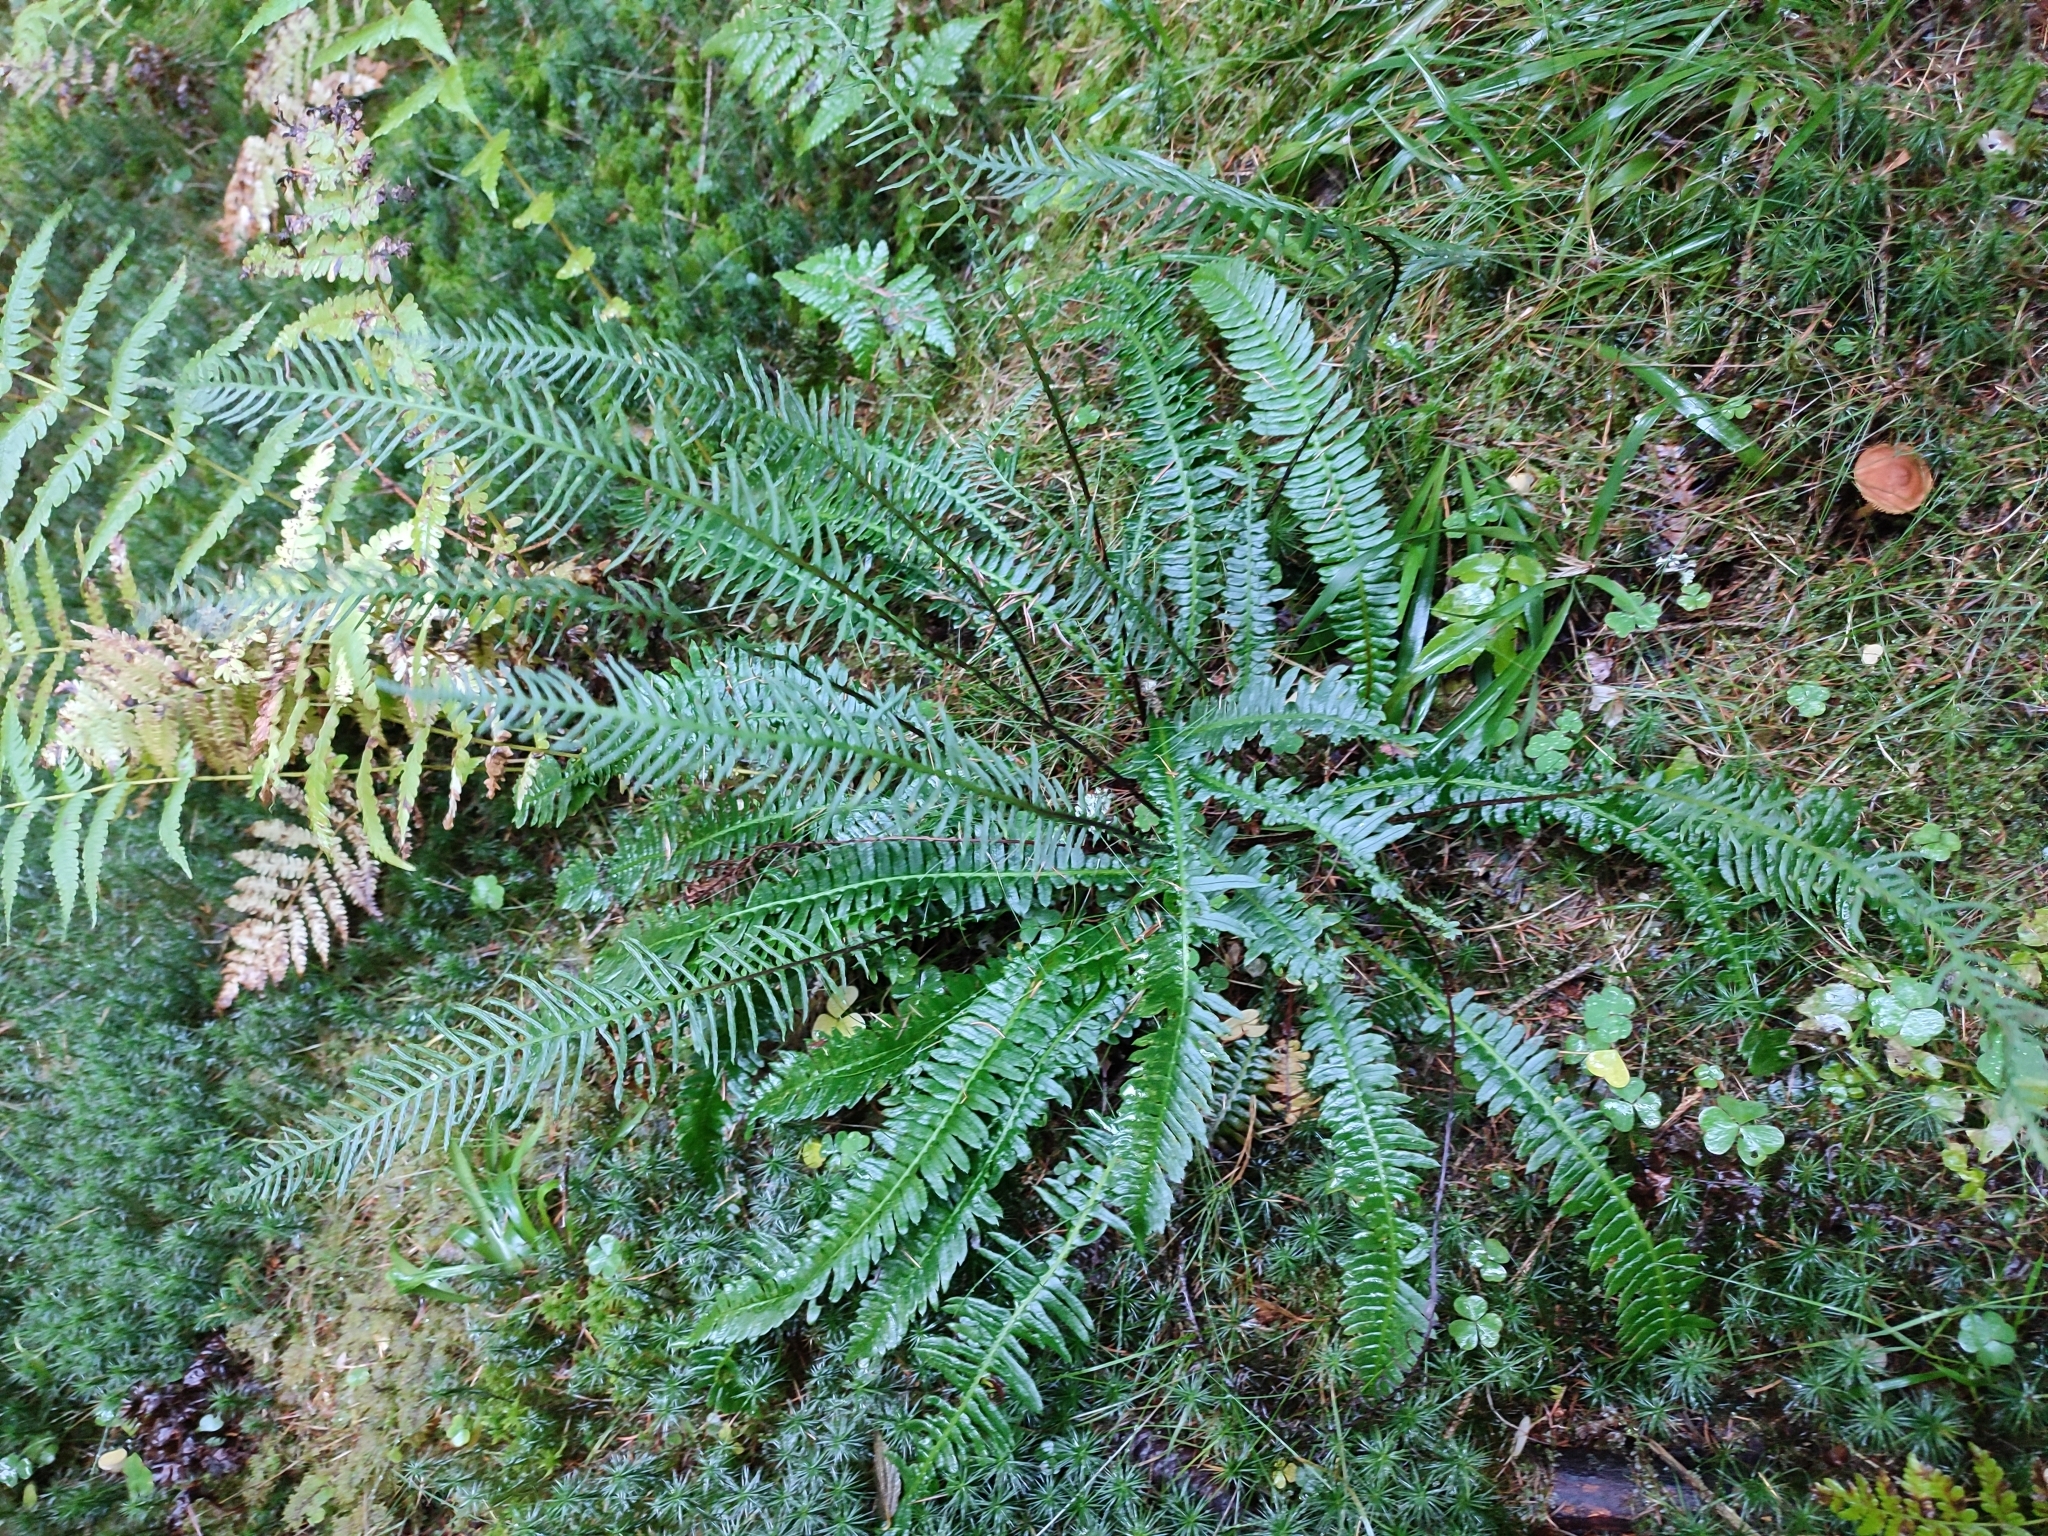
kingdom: Plantae
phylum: Tracheophyta
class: Polypodiopsida
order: Polypodiales
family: Blechnaceae
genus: Struthiopteris
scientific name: Struthiopteris spicant
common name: Deer fern
